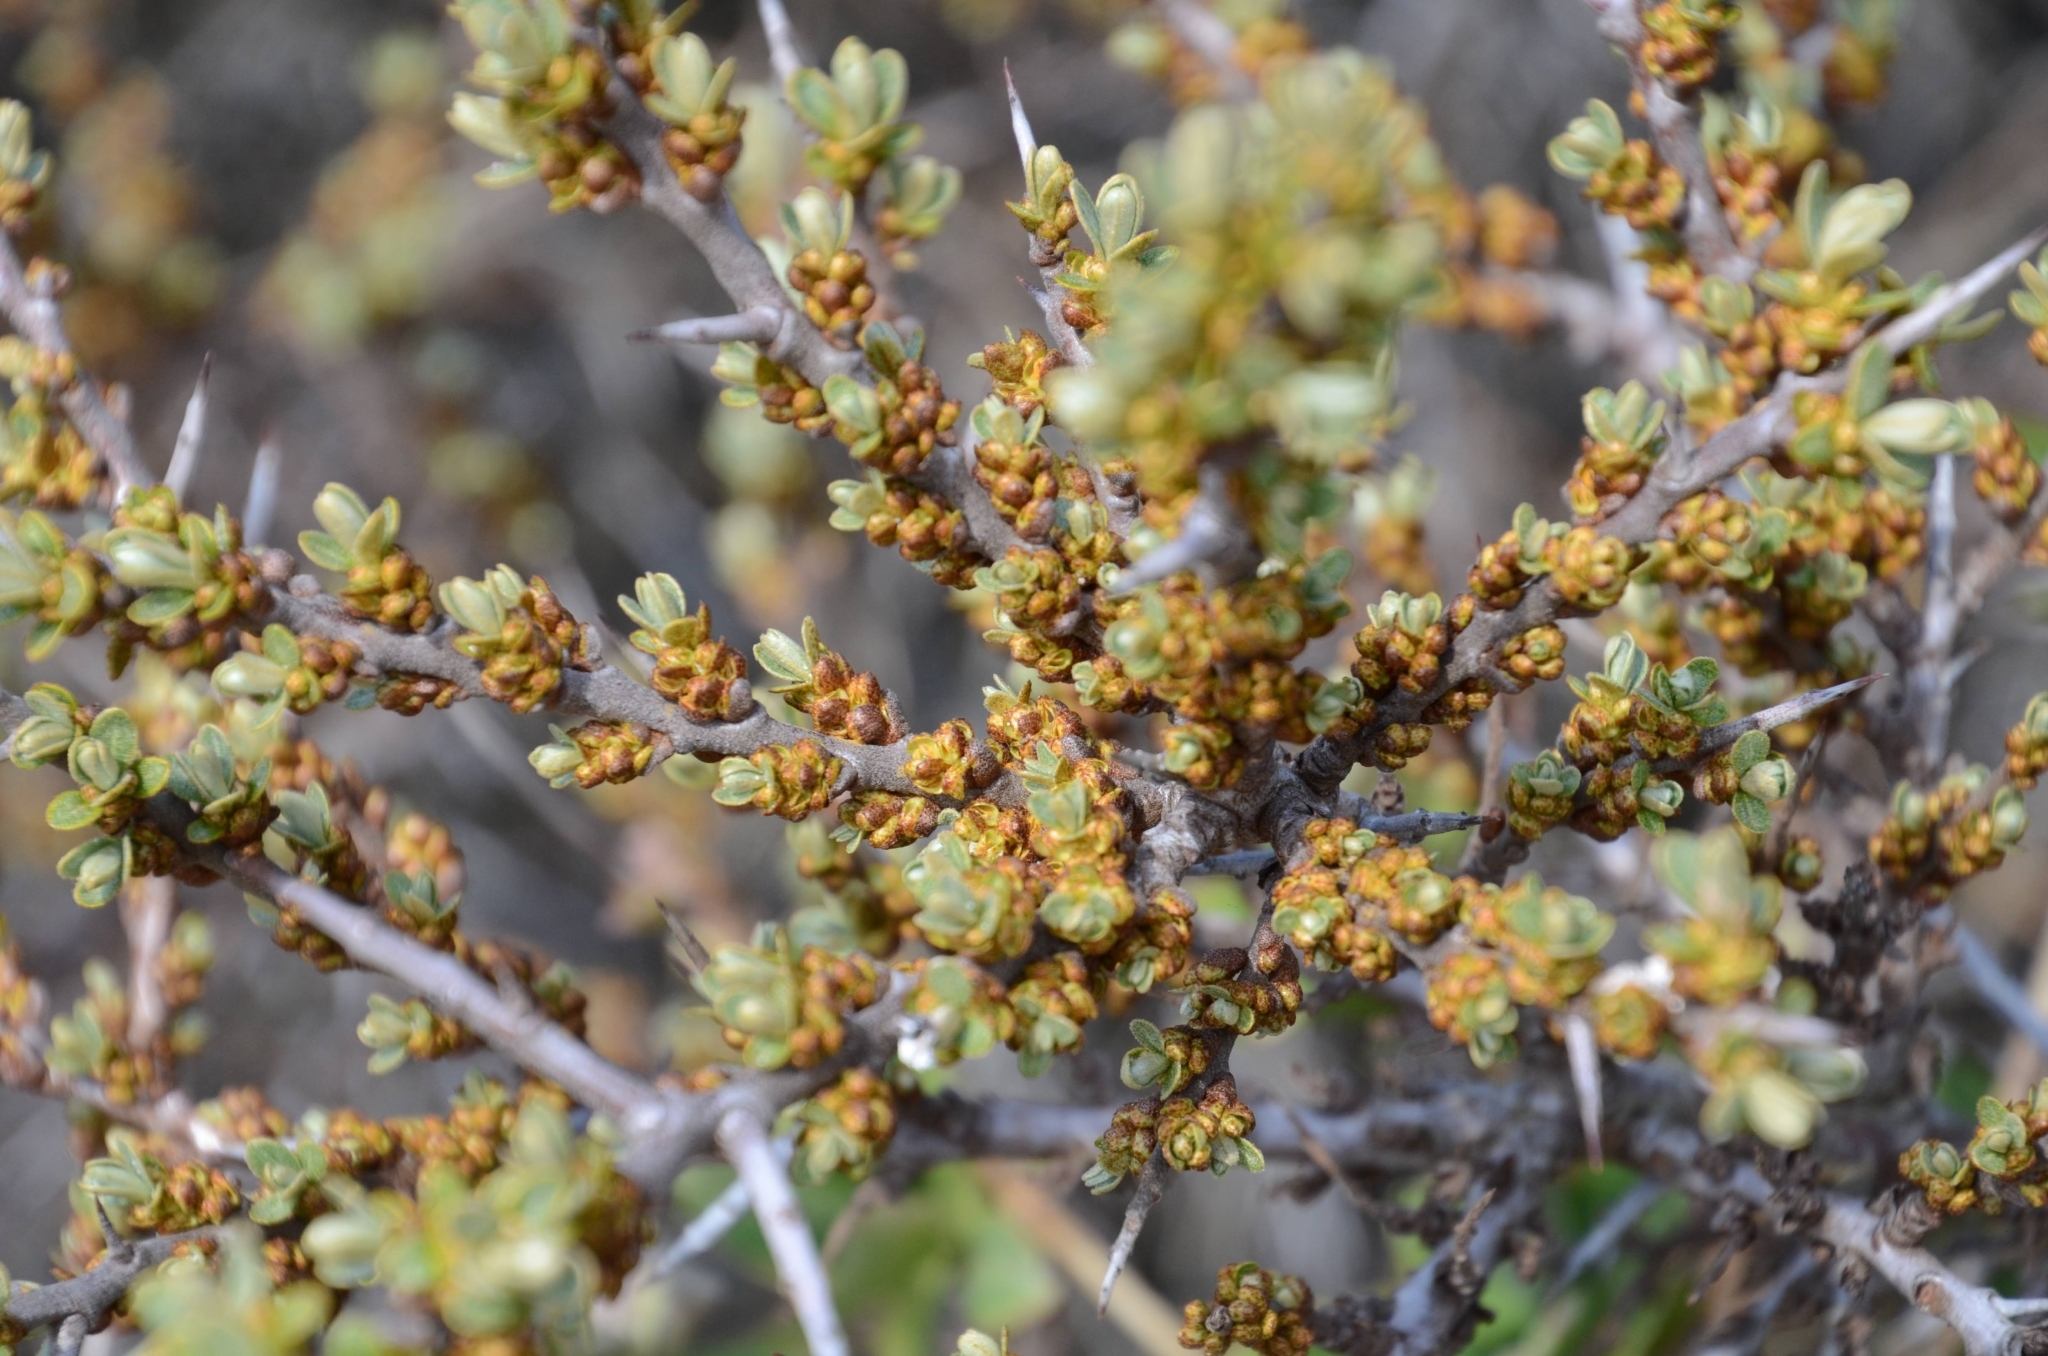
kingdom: Plantae
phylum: Tracheophyta
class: Magnoliopsida
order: Rosales
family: Elaeagnaceae
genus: Hippophae
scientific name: Hippophae rhamnoides
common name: Sea-buckthorn
